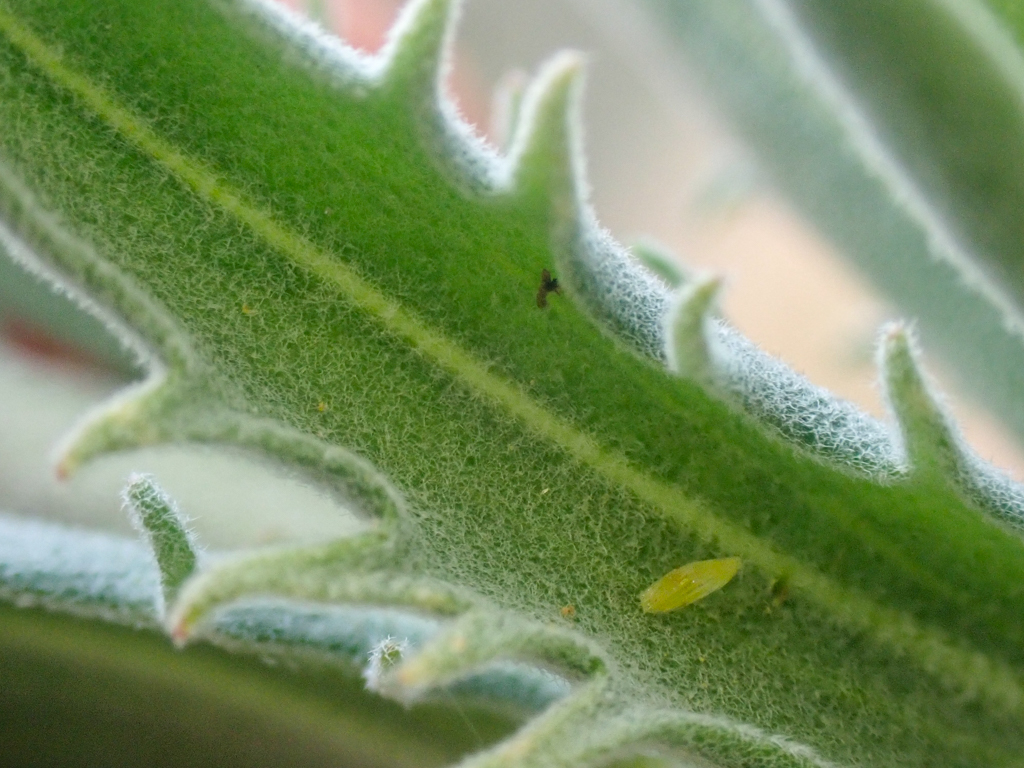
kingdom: Plantae
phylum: Tracheophyta
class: Magnoliopsida
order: Brassicales
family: Brassicaceae
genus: Boechera
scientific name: Boechera subpinnatifida
